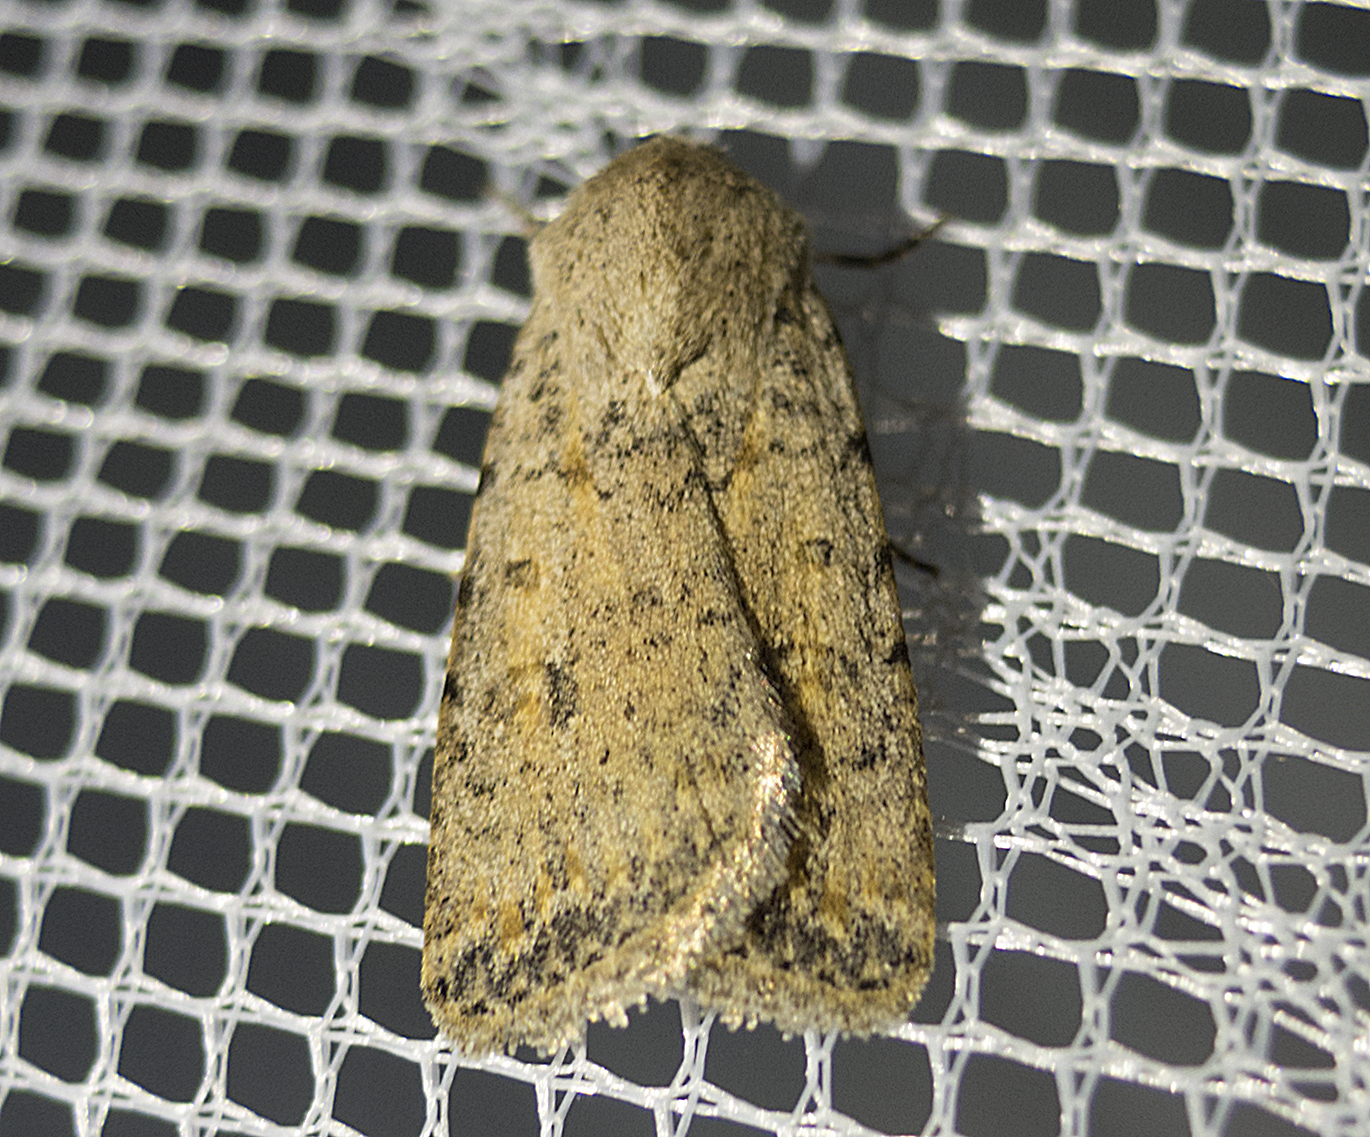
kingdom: Animalia
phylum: Arthropoda
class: Insecta
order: Lepidoptera
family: Noctuidae
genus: Caradrina
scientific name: Caradrina clavipalpis
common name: Pale mottled willow
